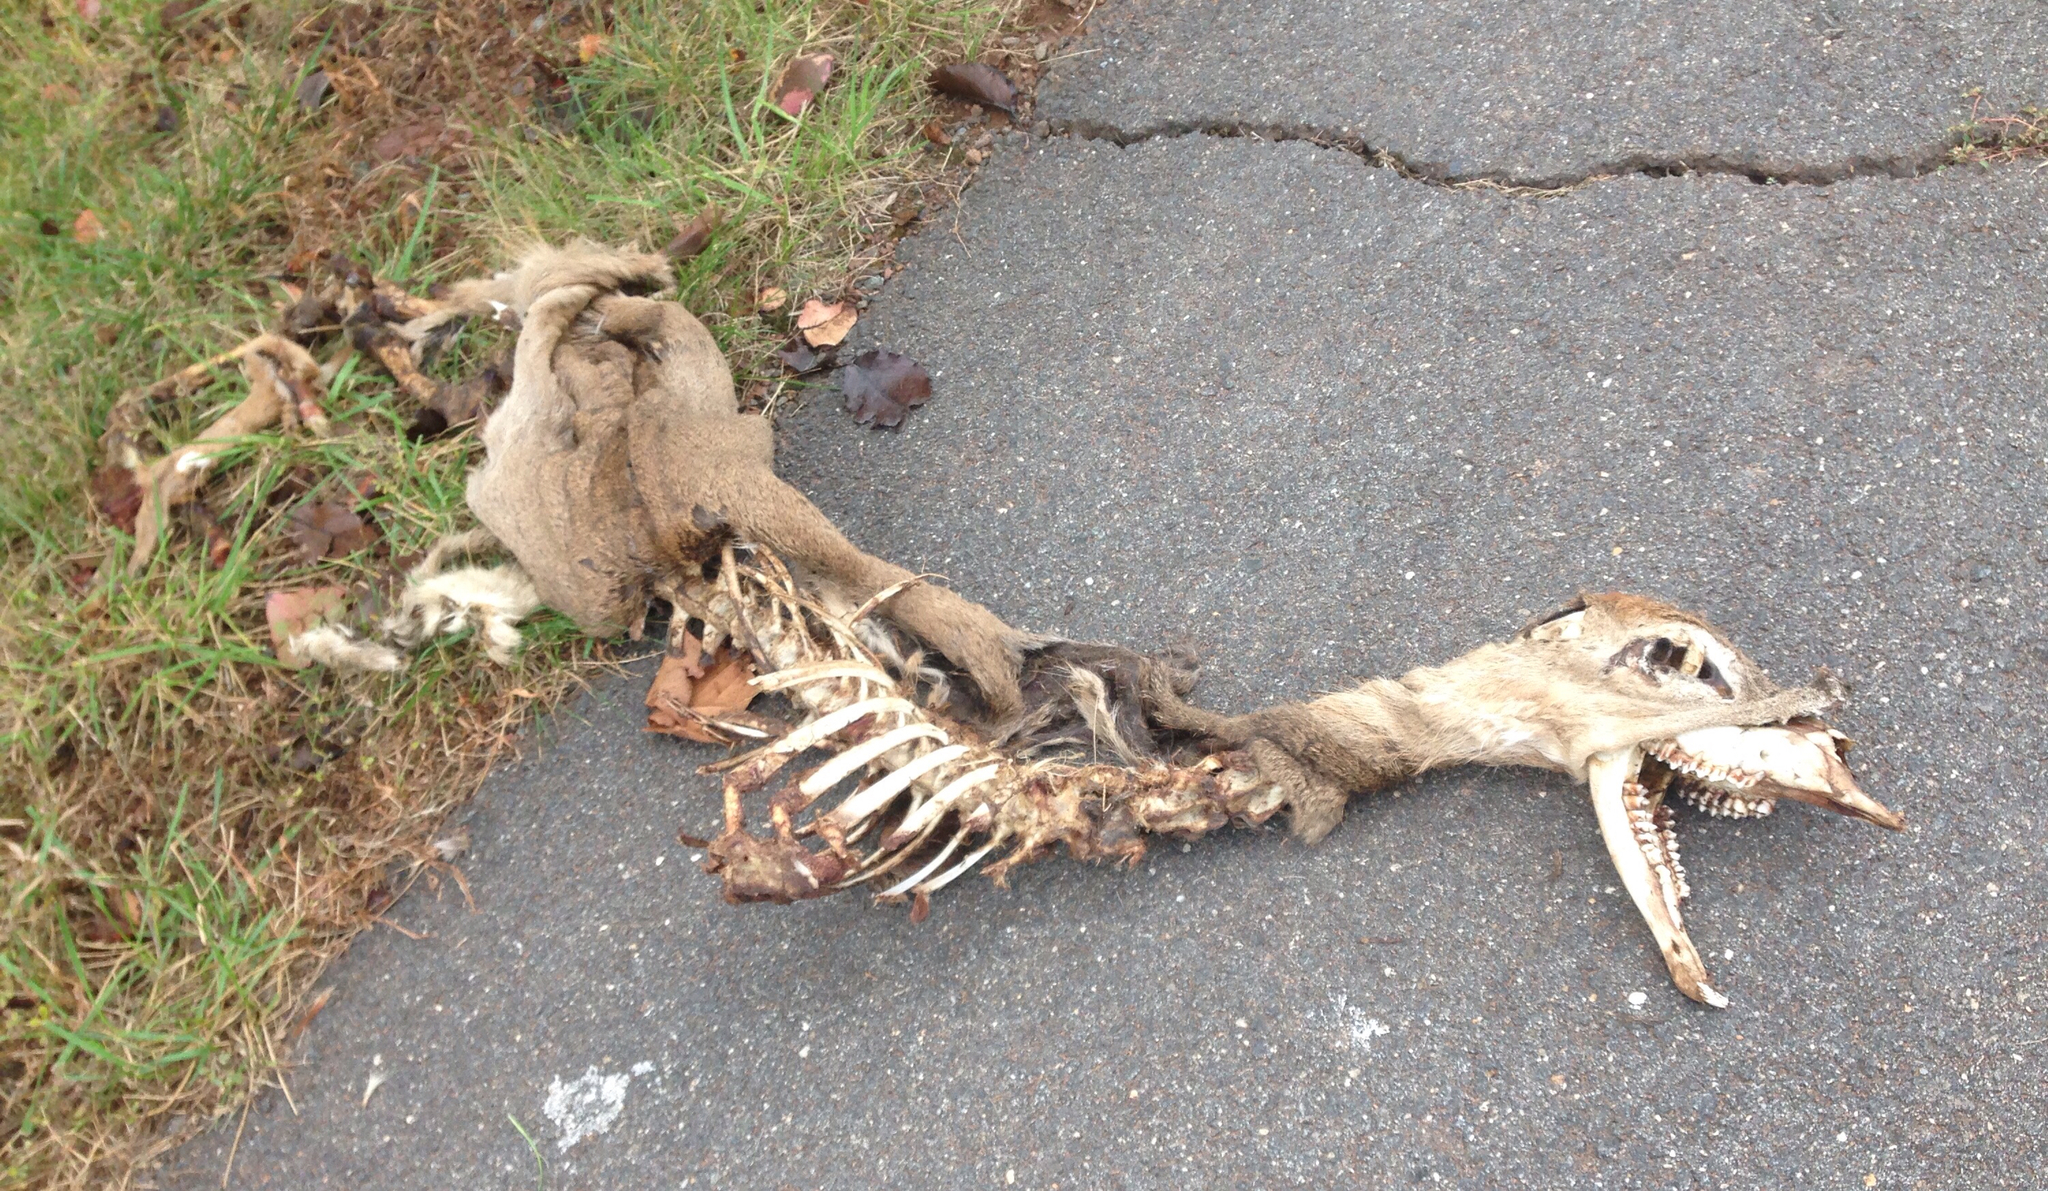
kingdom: Animalia
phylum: Chordata
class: Mammalia
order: Artiodactyla
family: Cervidae
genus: Odocoileus
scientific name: Odocoileus virginianus
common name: White-tailed deer
